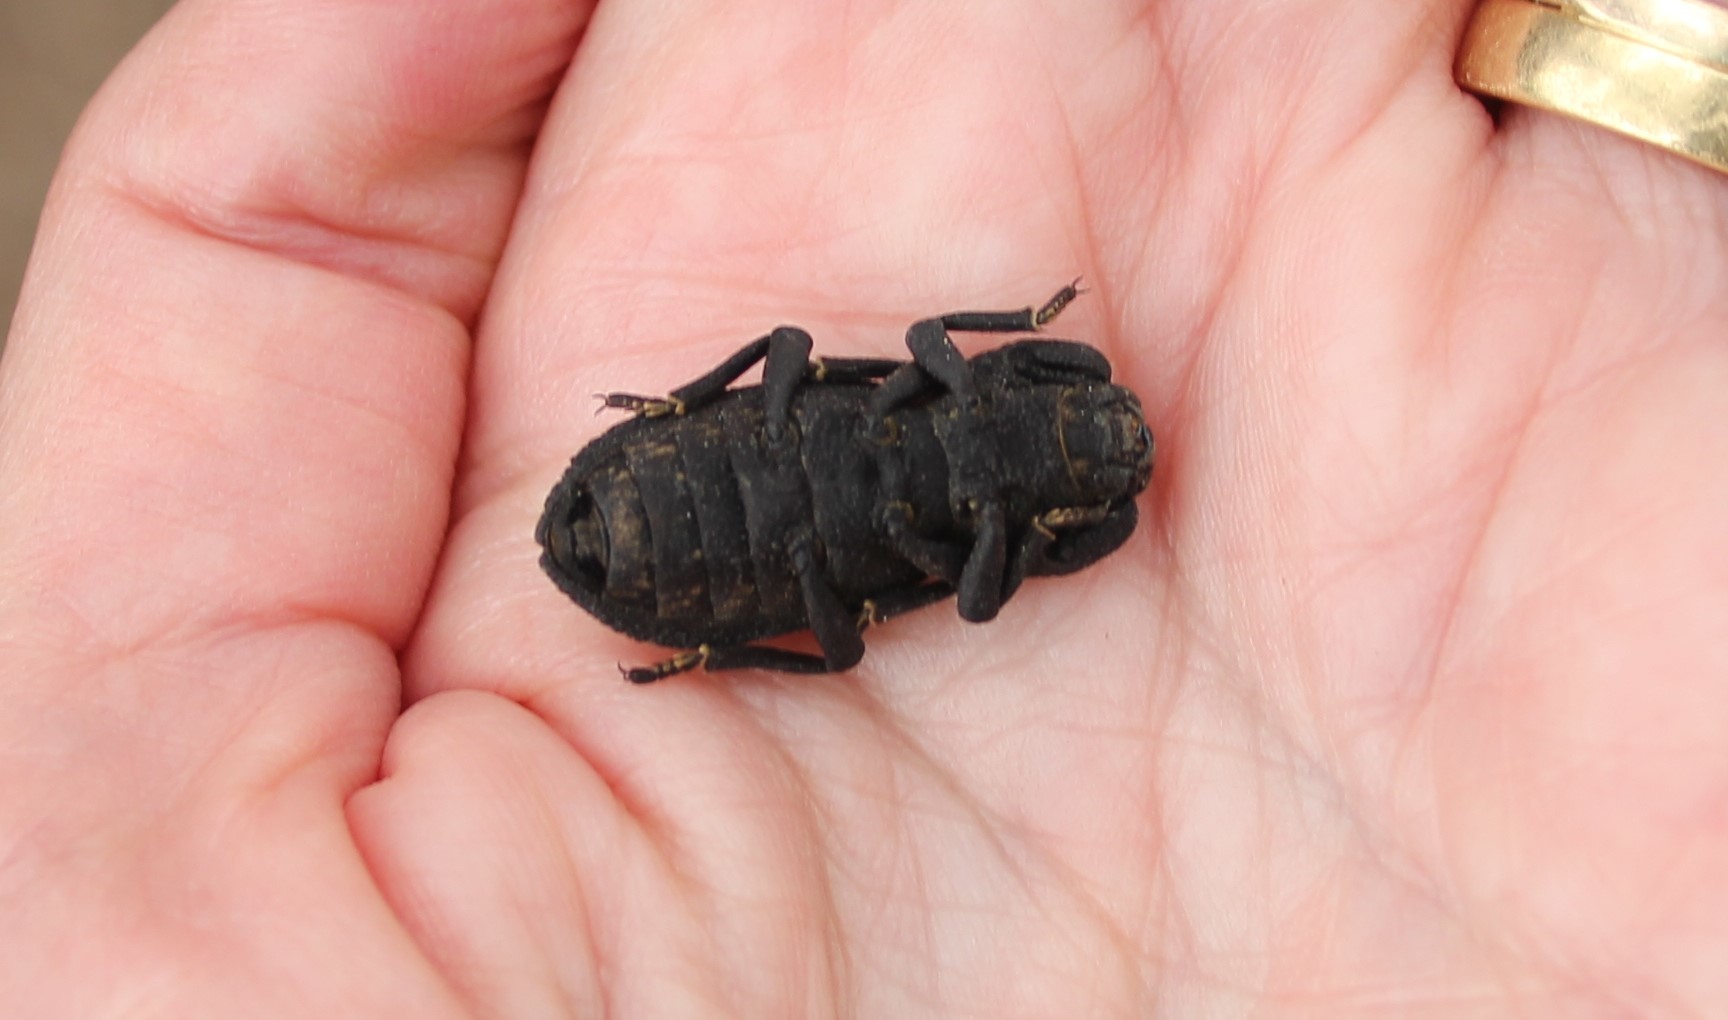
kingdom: Animalia
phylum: Arthropoda
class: Insecta
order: Coleoptera
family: Zopheridae
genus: Phloeodes
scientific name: Phloeodes diabolicus
